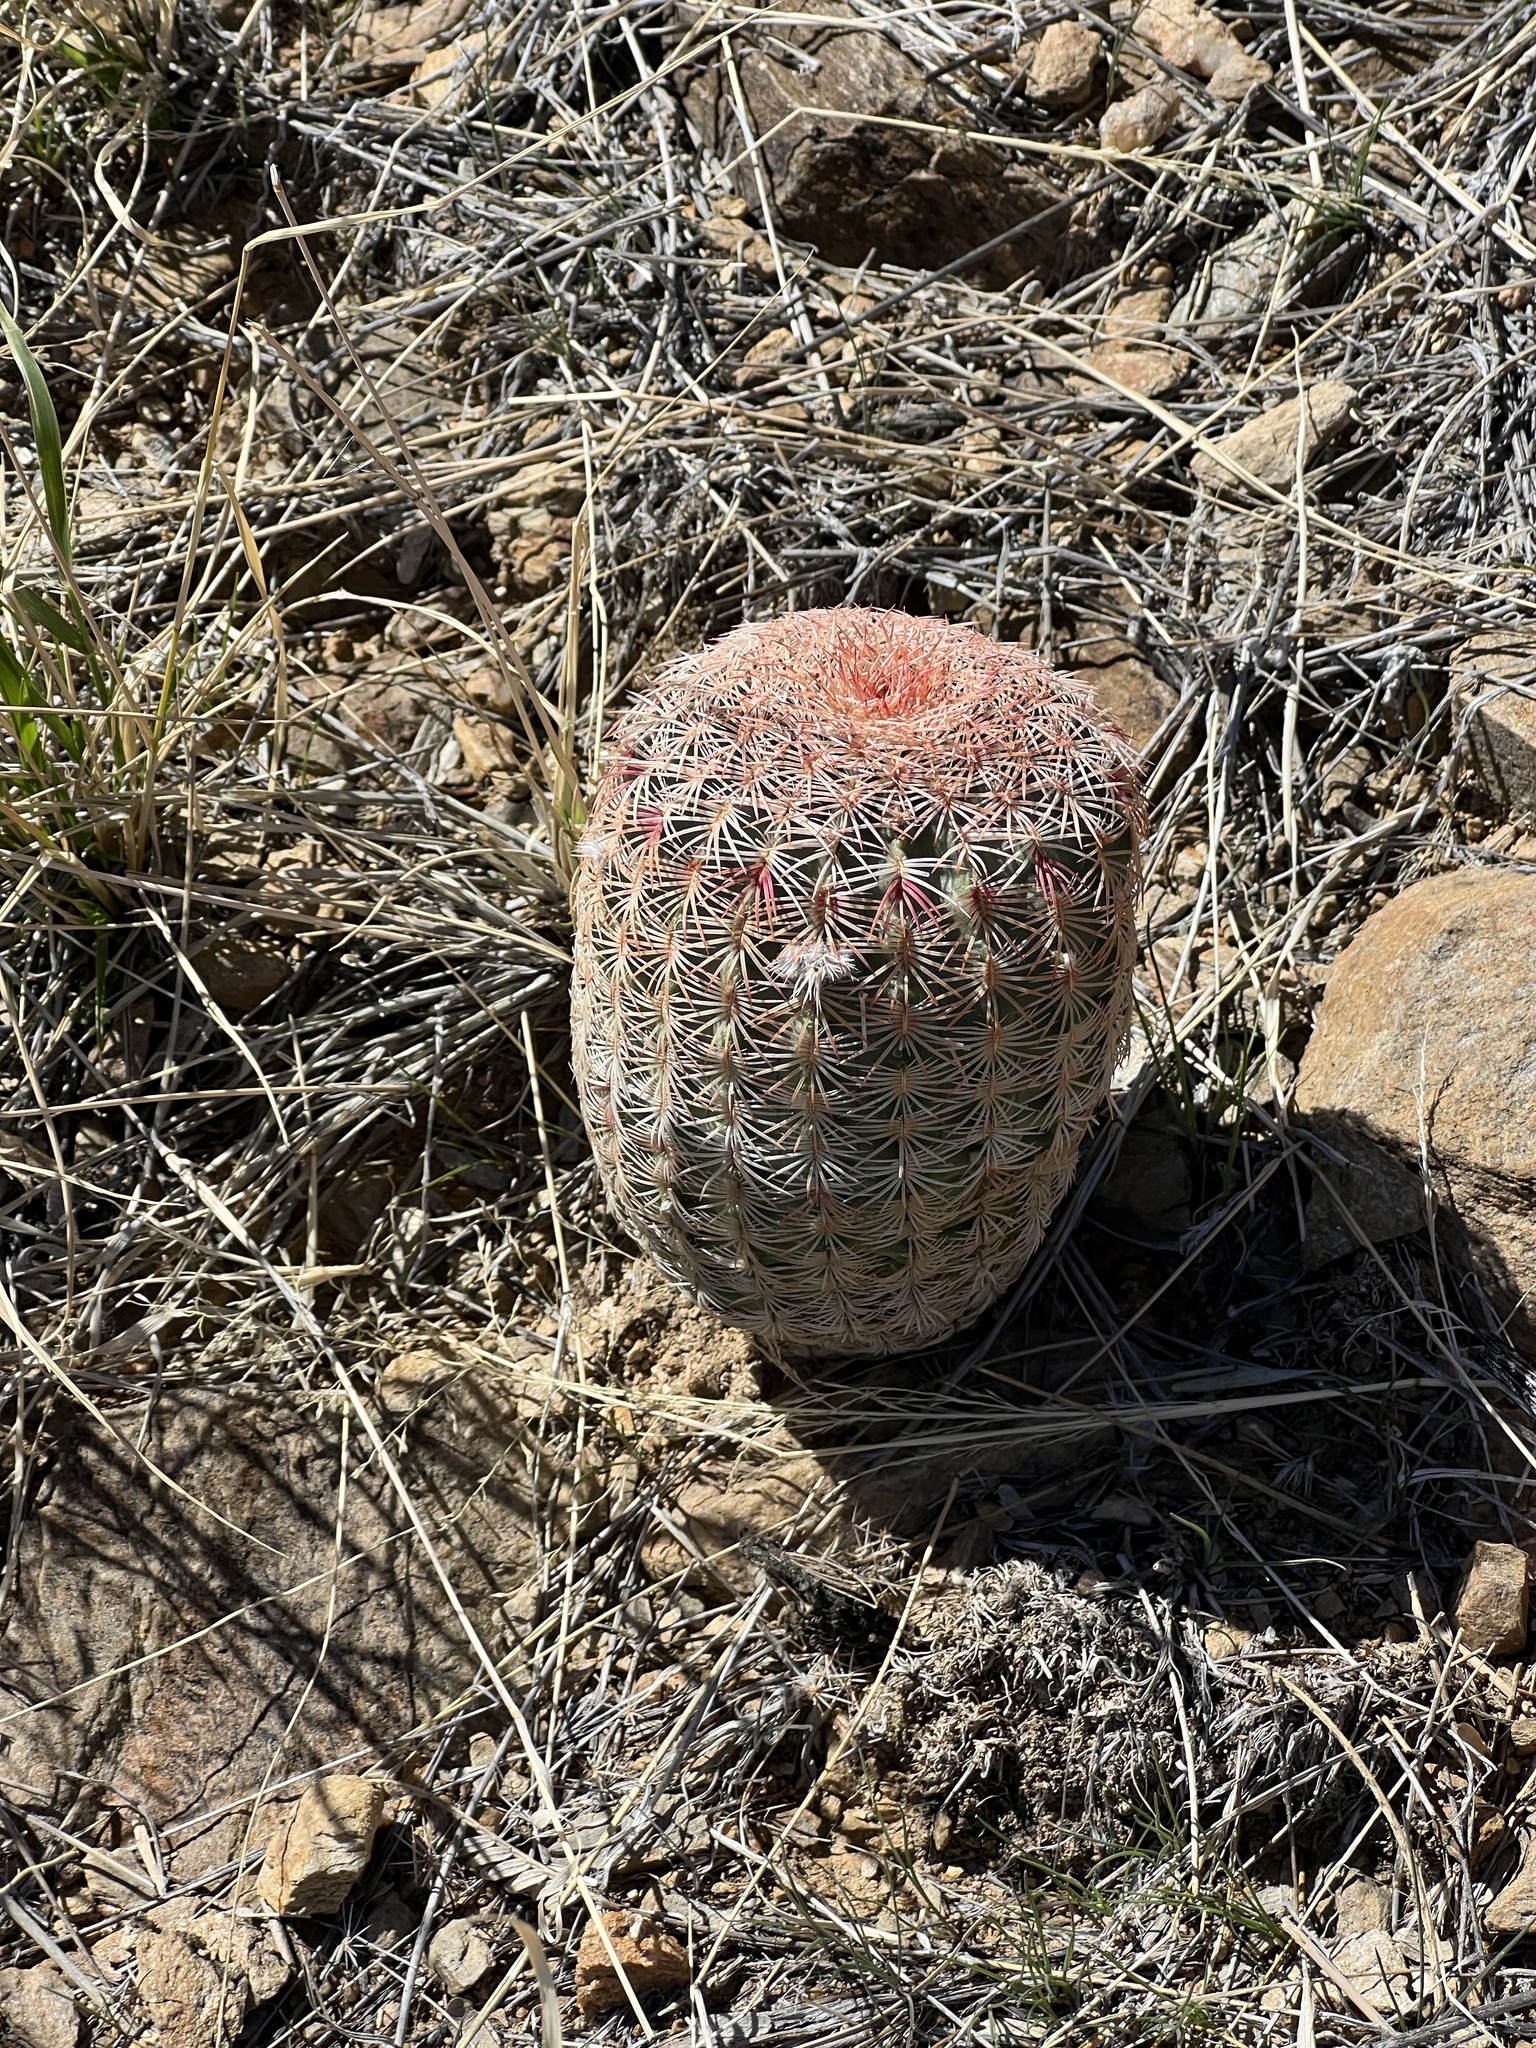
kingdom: Plantae
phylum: Tracheophyta
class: Magnoliopsida
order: Caryophyllales
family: Cactaceae
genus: Echinocereus
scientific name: Echinocereus rigidissimus
